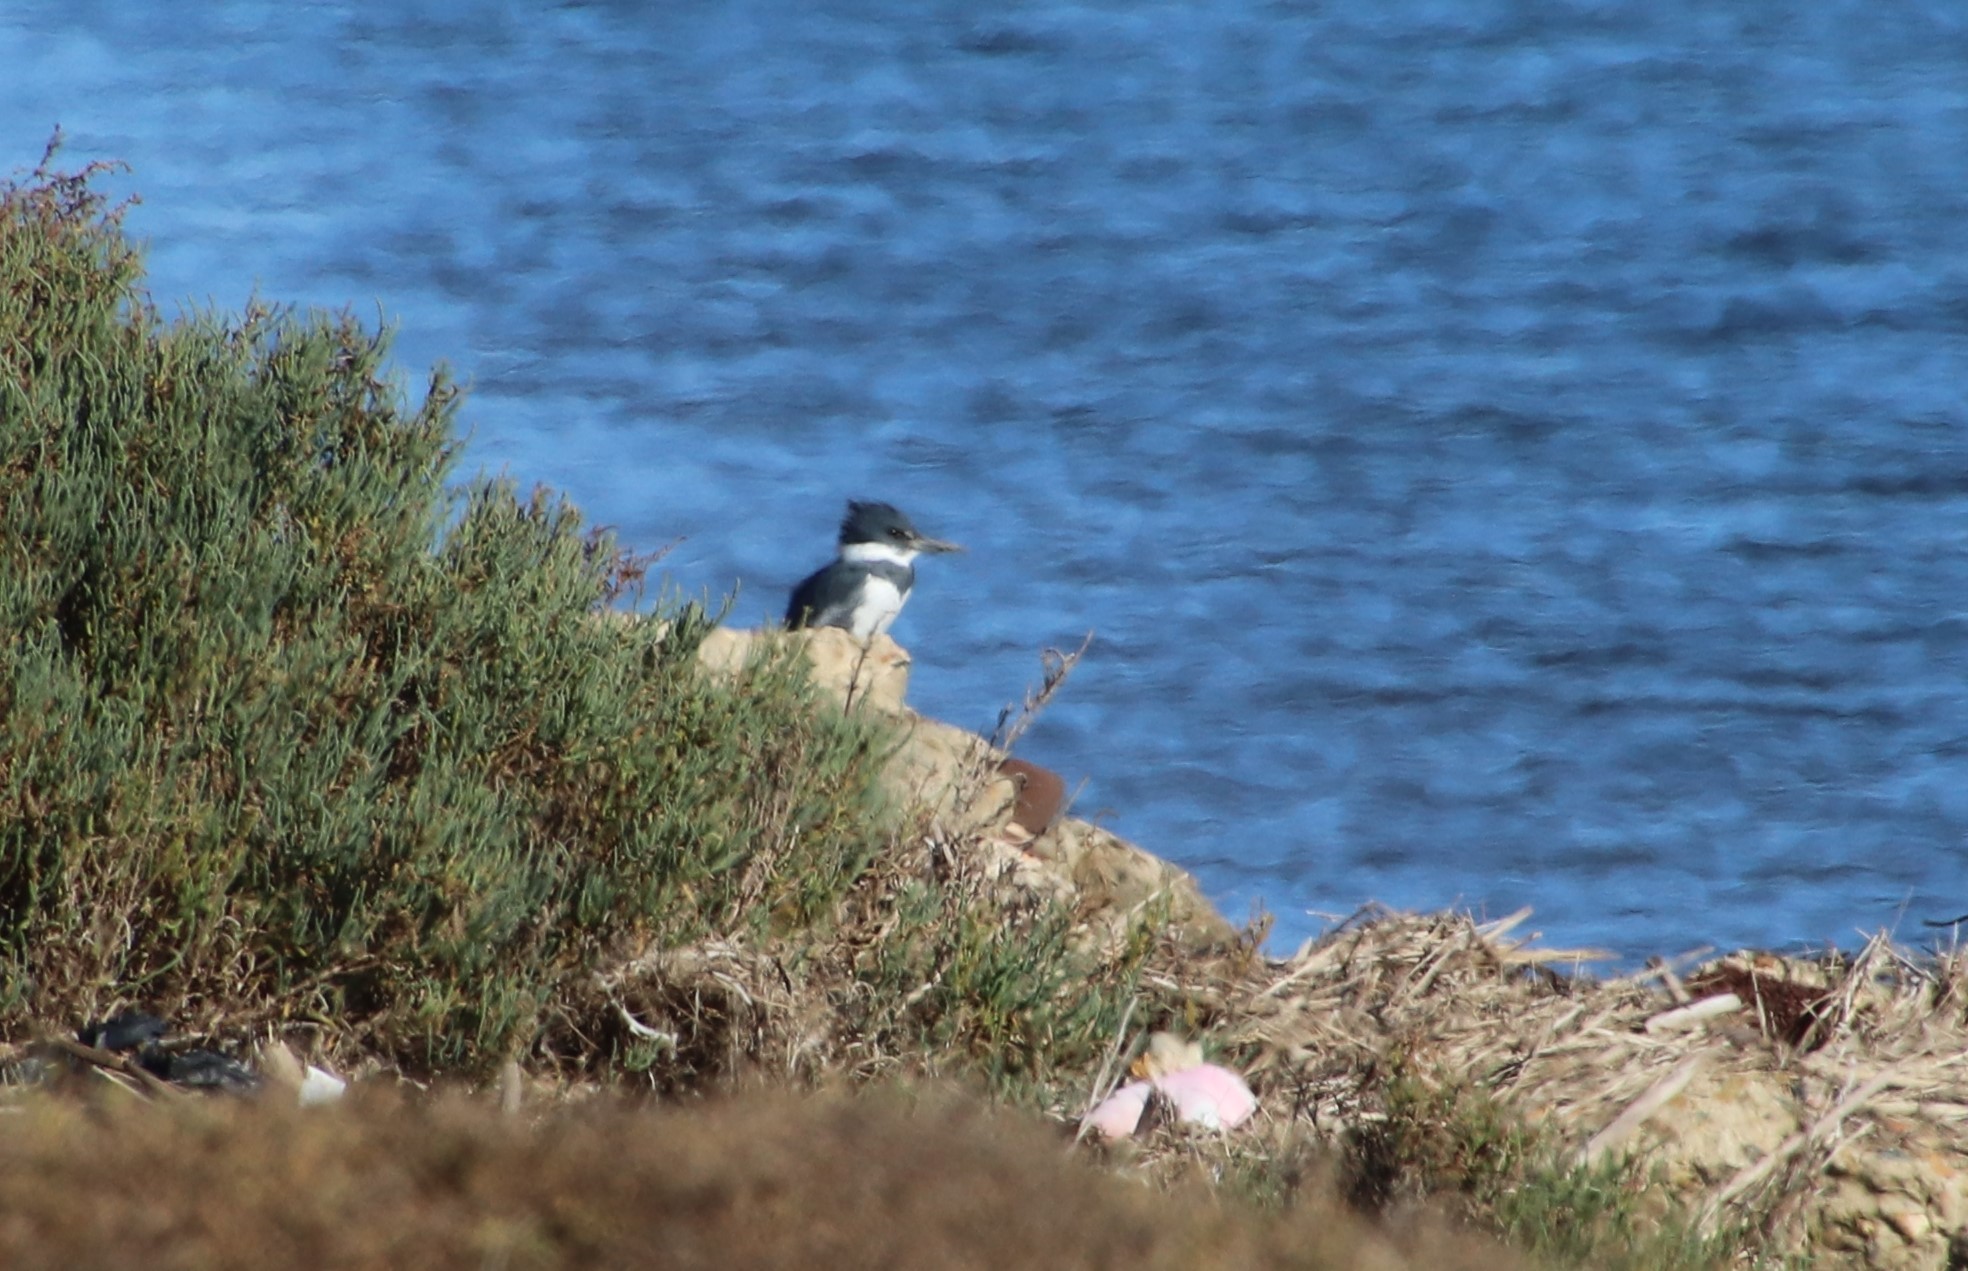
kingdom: Animalia
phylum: Chordata
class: Aves
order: Coraciiformes
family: Alcedinidae
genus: Megaceryle
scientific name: Megaceryle alcyon
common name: Belted kingfisher
